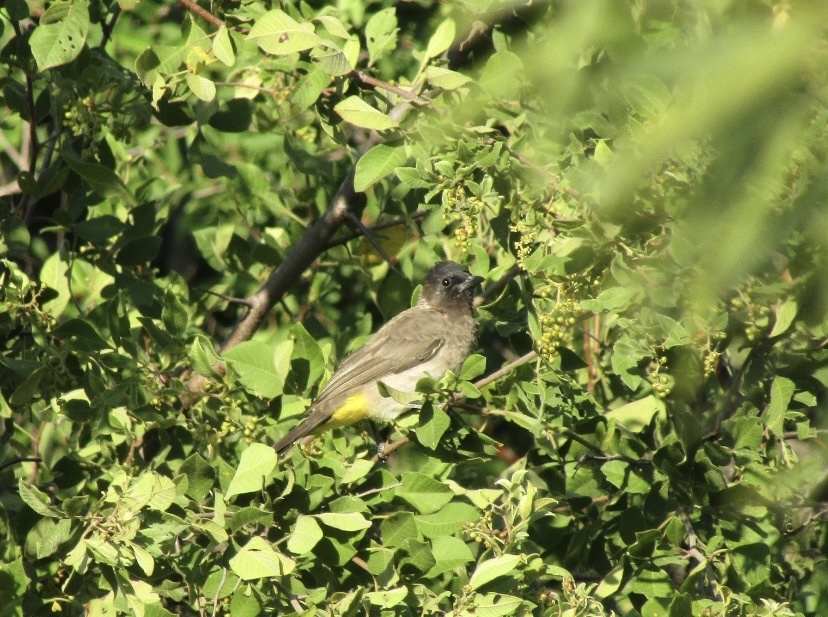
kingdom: Animalia
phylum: Chordata
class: Aves
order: Passeriformes
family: Pycnonotidae
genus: Pycnonotus
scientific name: Pycnonotus barbatus
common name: Common bulbul
